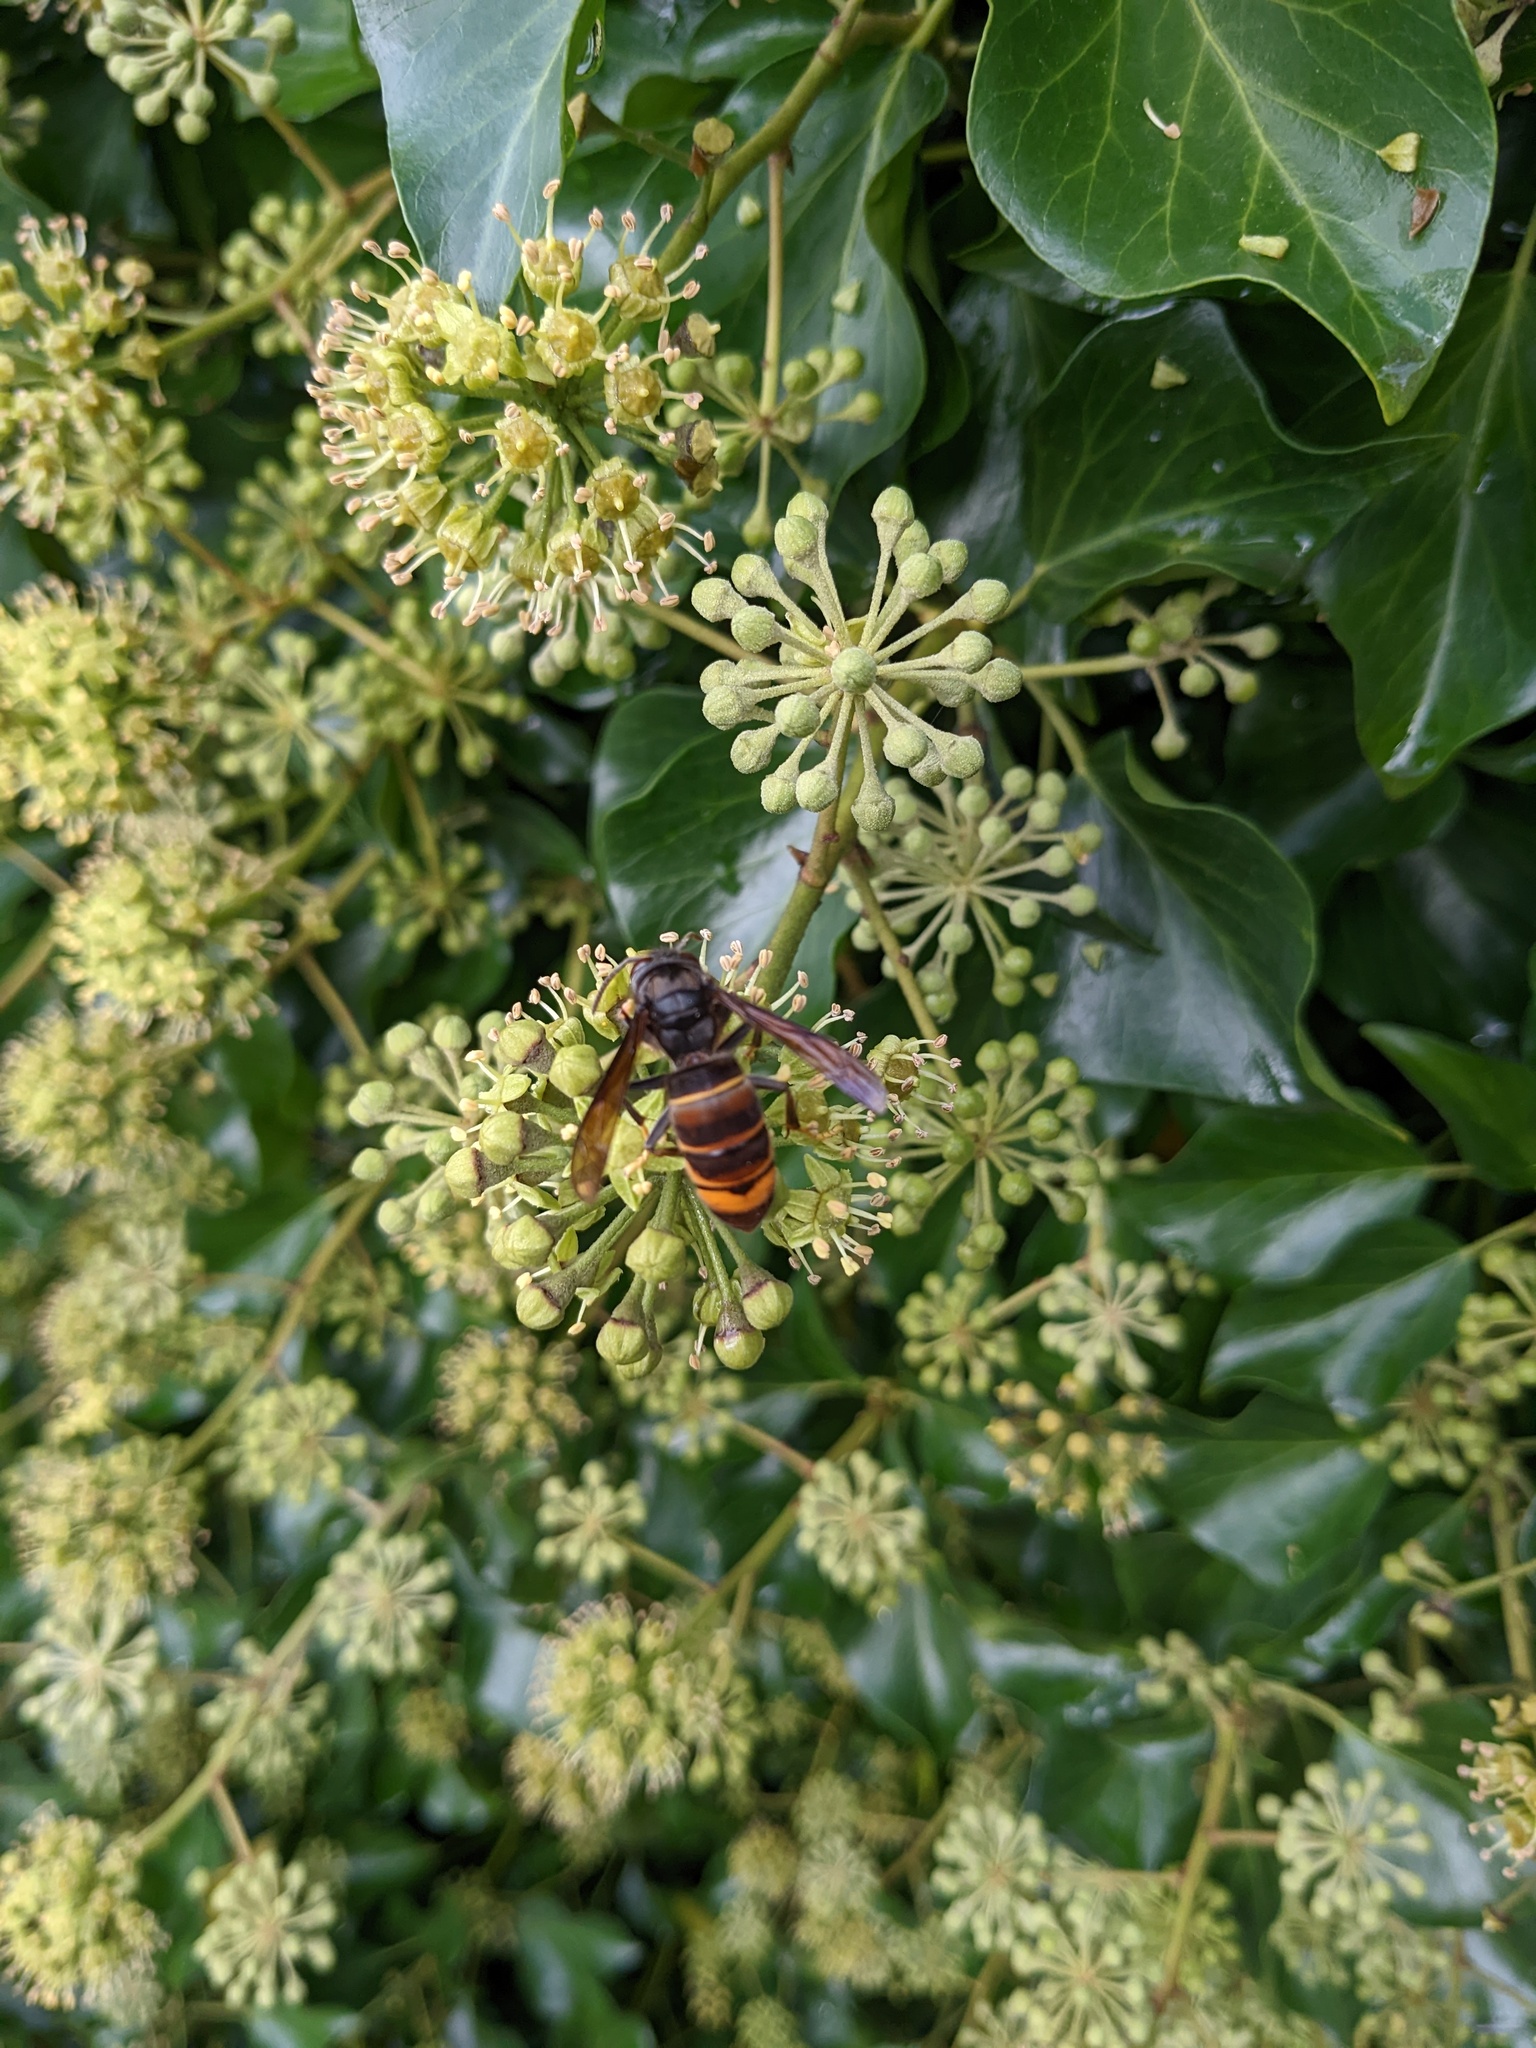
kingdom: Animalia
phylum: Arthropoda
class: Insecta
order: Hymenoptera
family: Vespidae
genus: Vespa
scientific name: Vespa velutina
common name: Asian hornet
